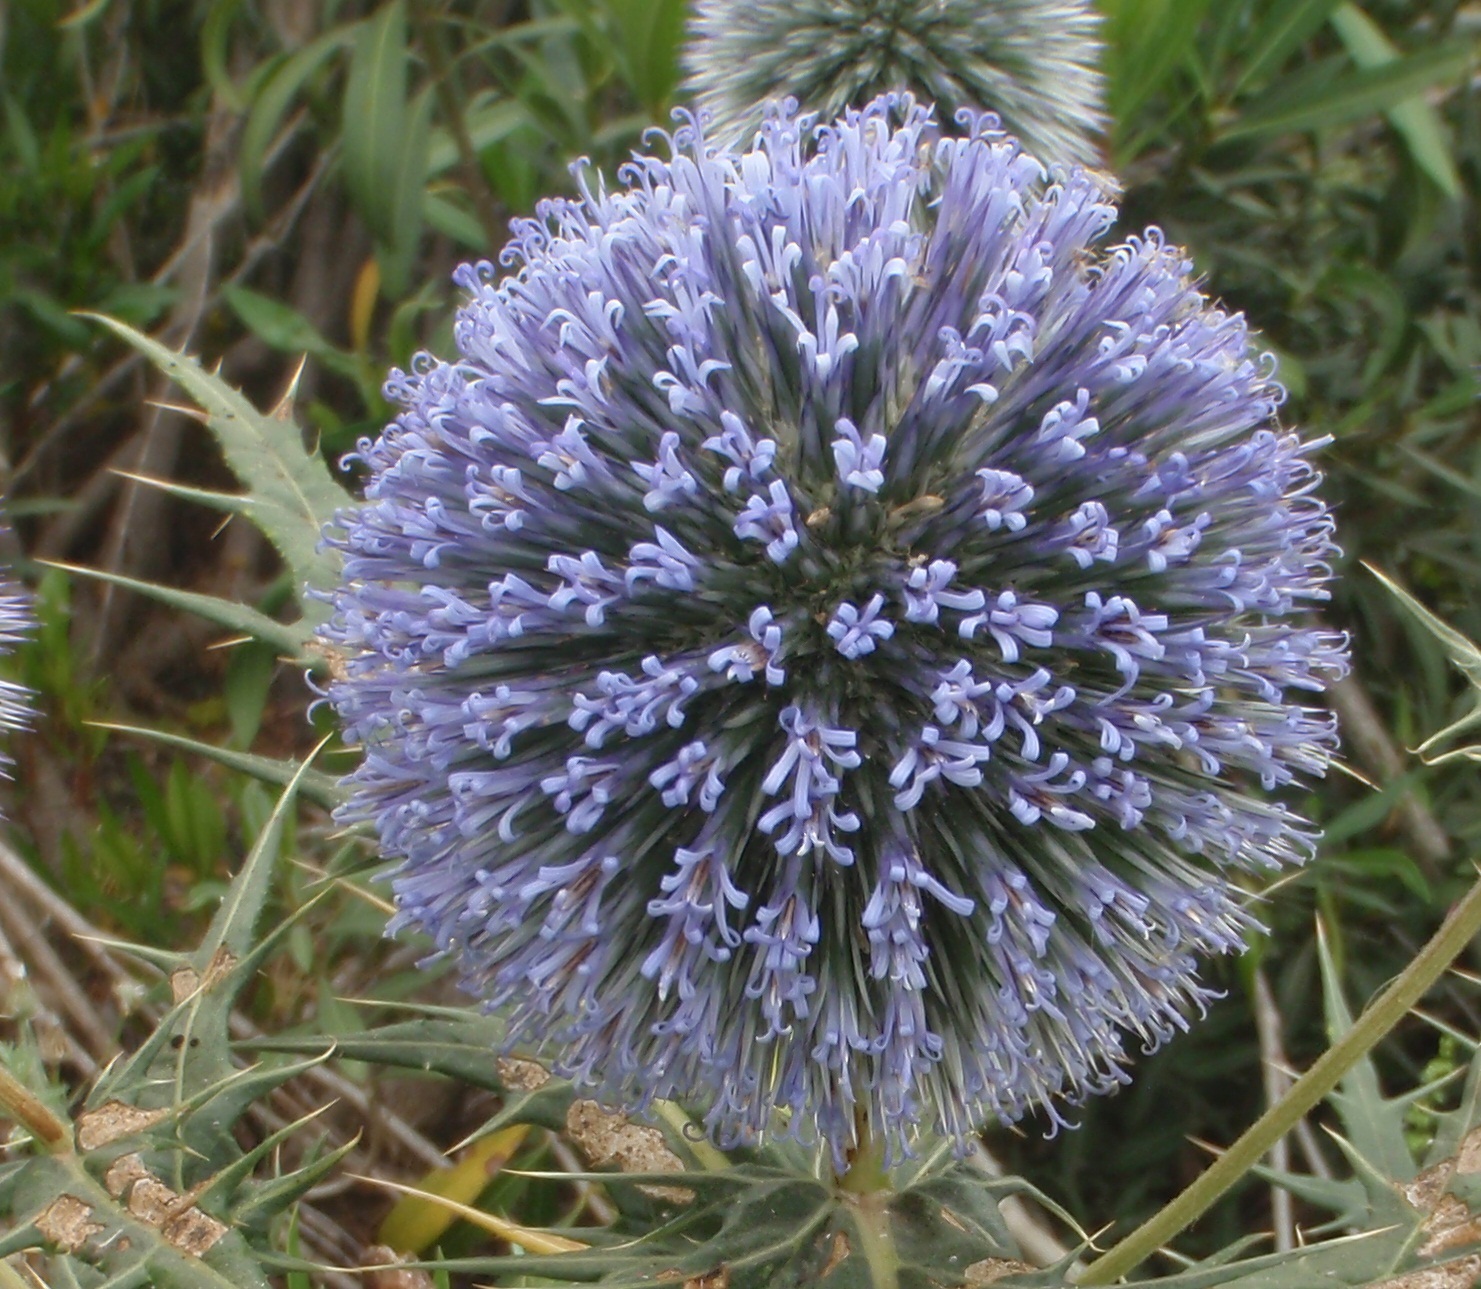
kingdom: Plantae
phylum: Tracheophyta
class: Magnoliopsida
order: Asterales
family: Asteraceae
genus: Echinops
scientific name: Echinops bovei
